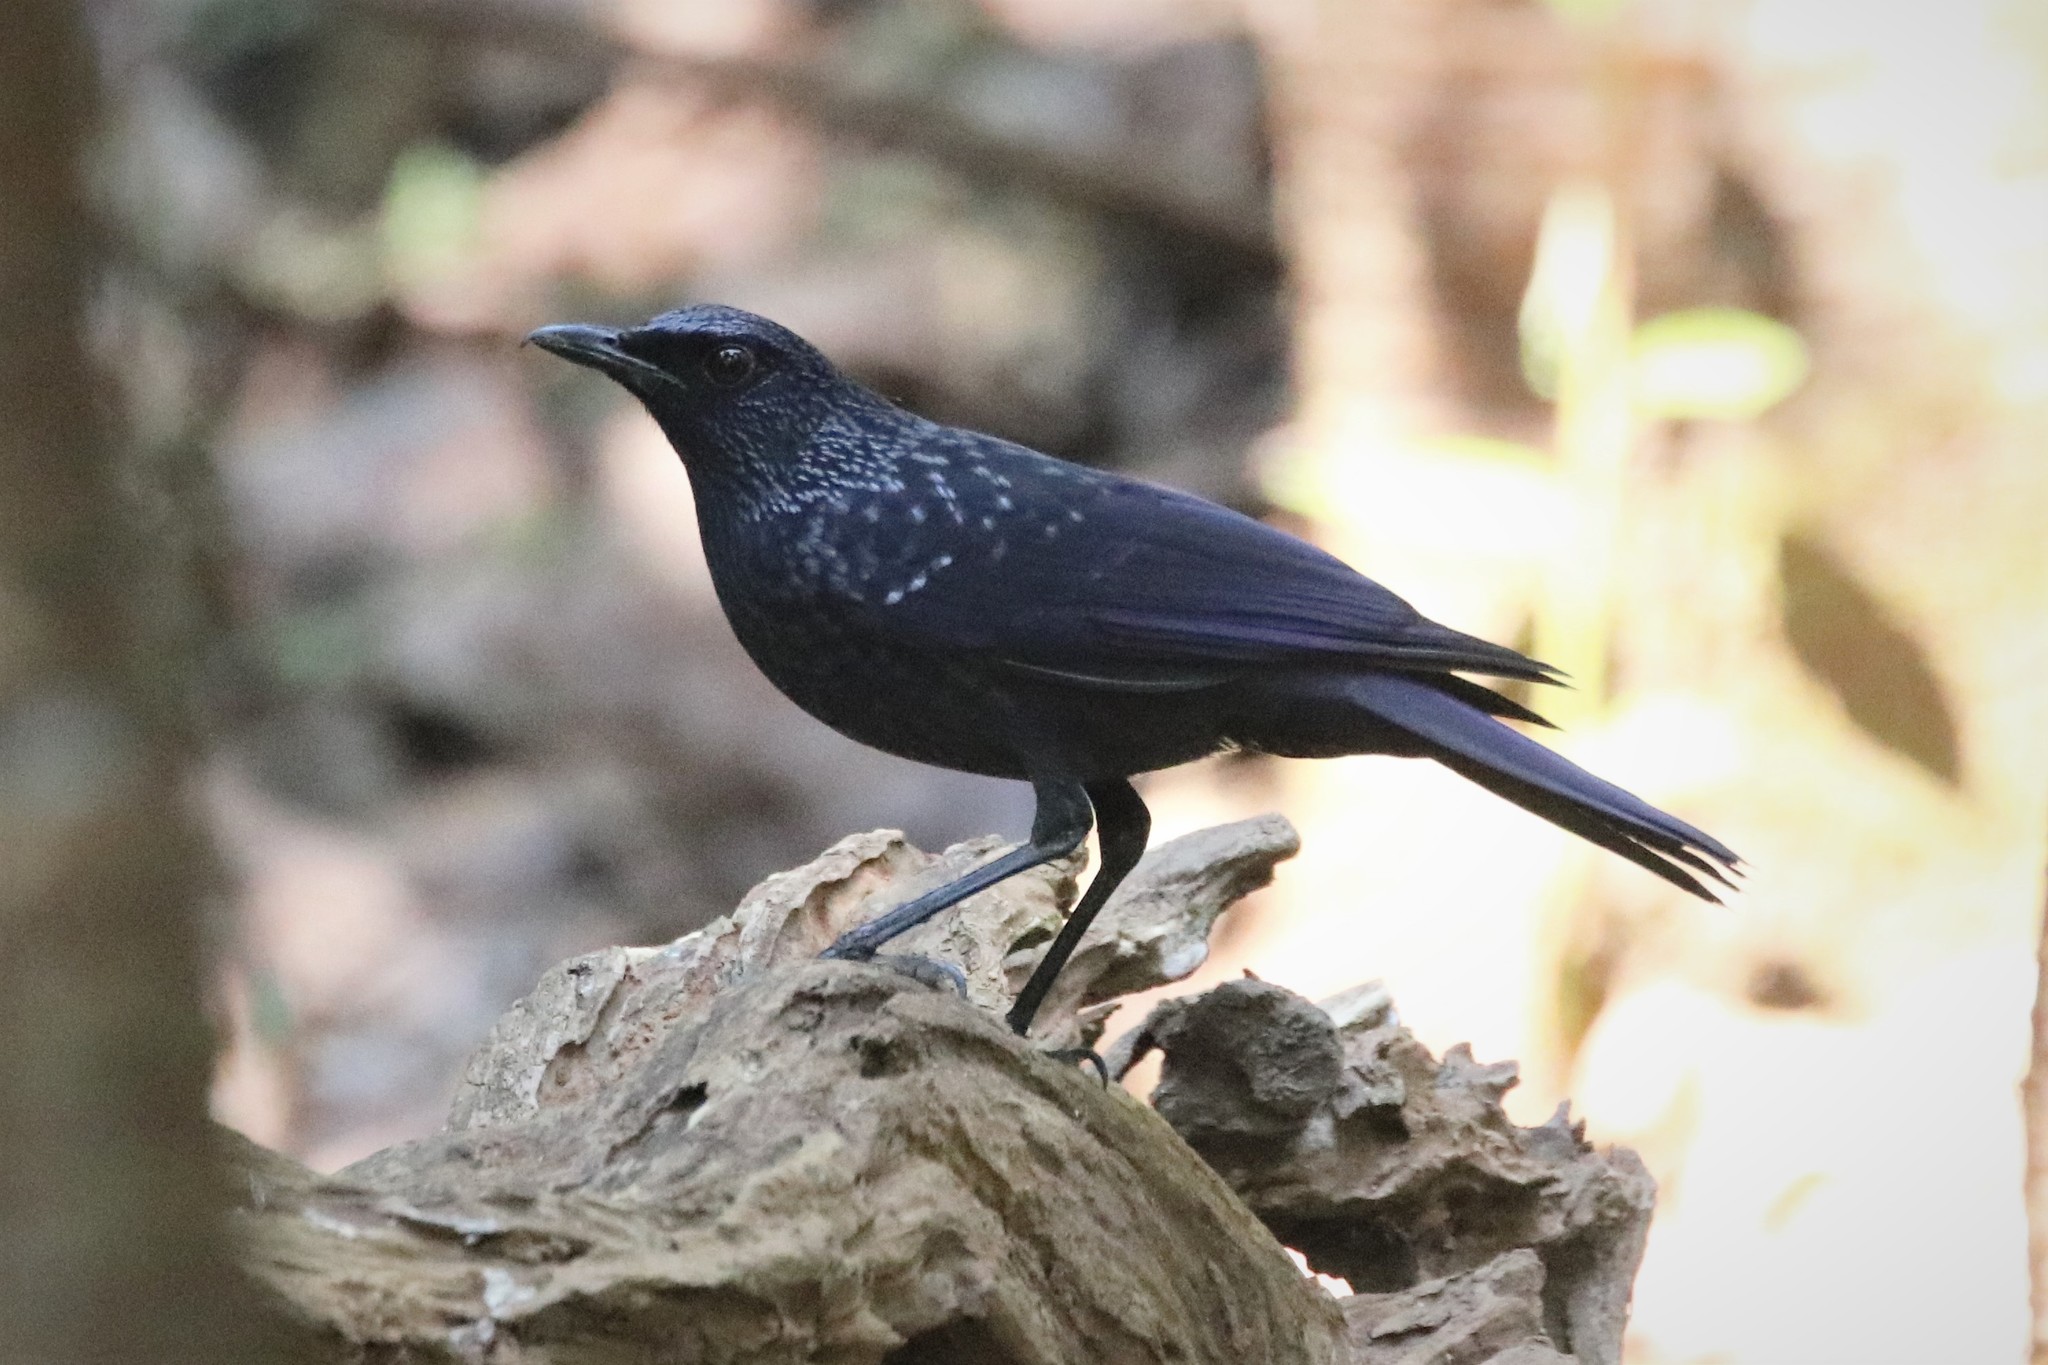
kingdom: Animalia
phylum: Chordata
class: Aves
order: Passeriformes
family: Muscicapidae
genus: Myophonus
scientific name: Myophonus caeruleus
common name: Blue whistling-thrush
